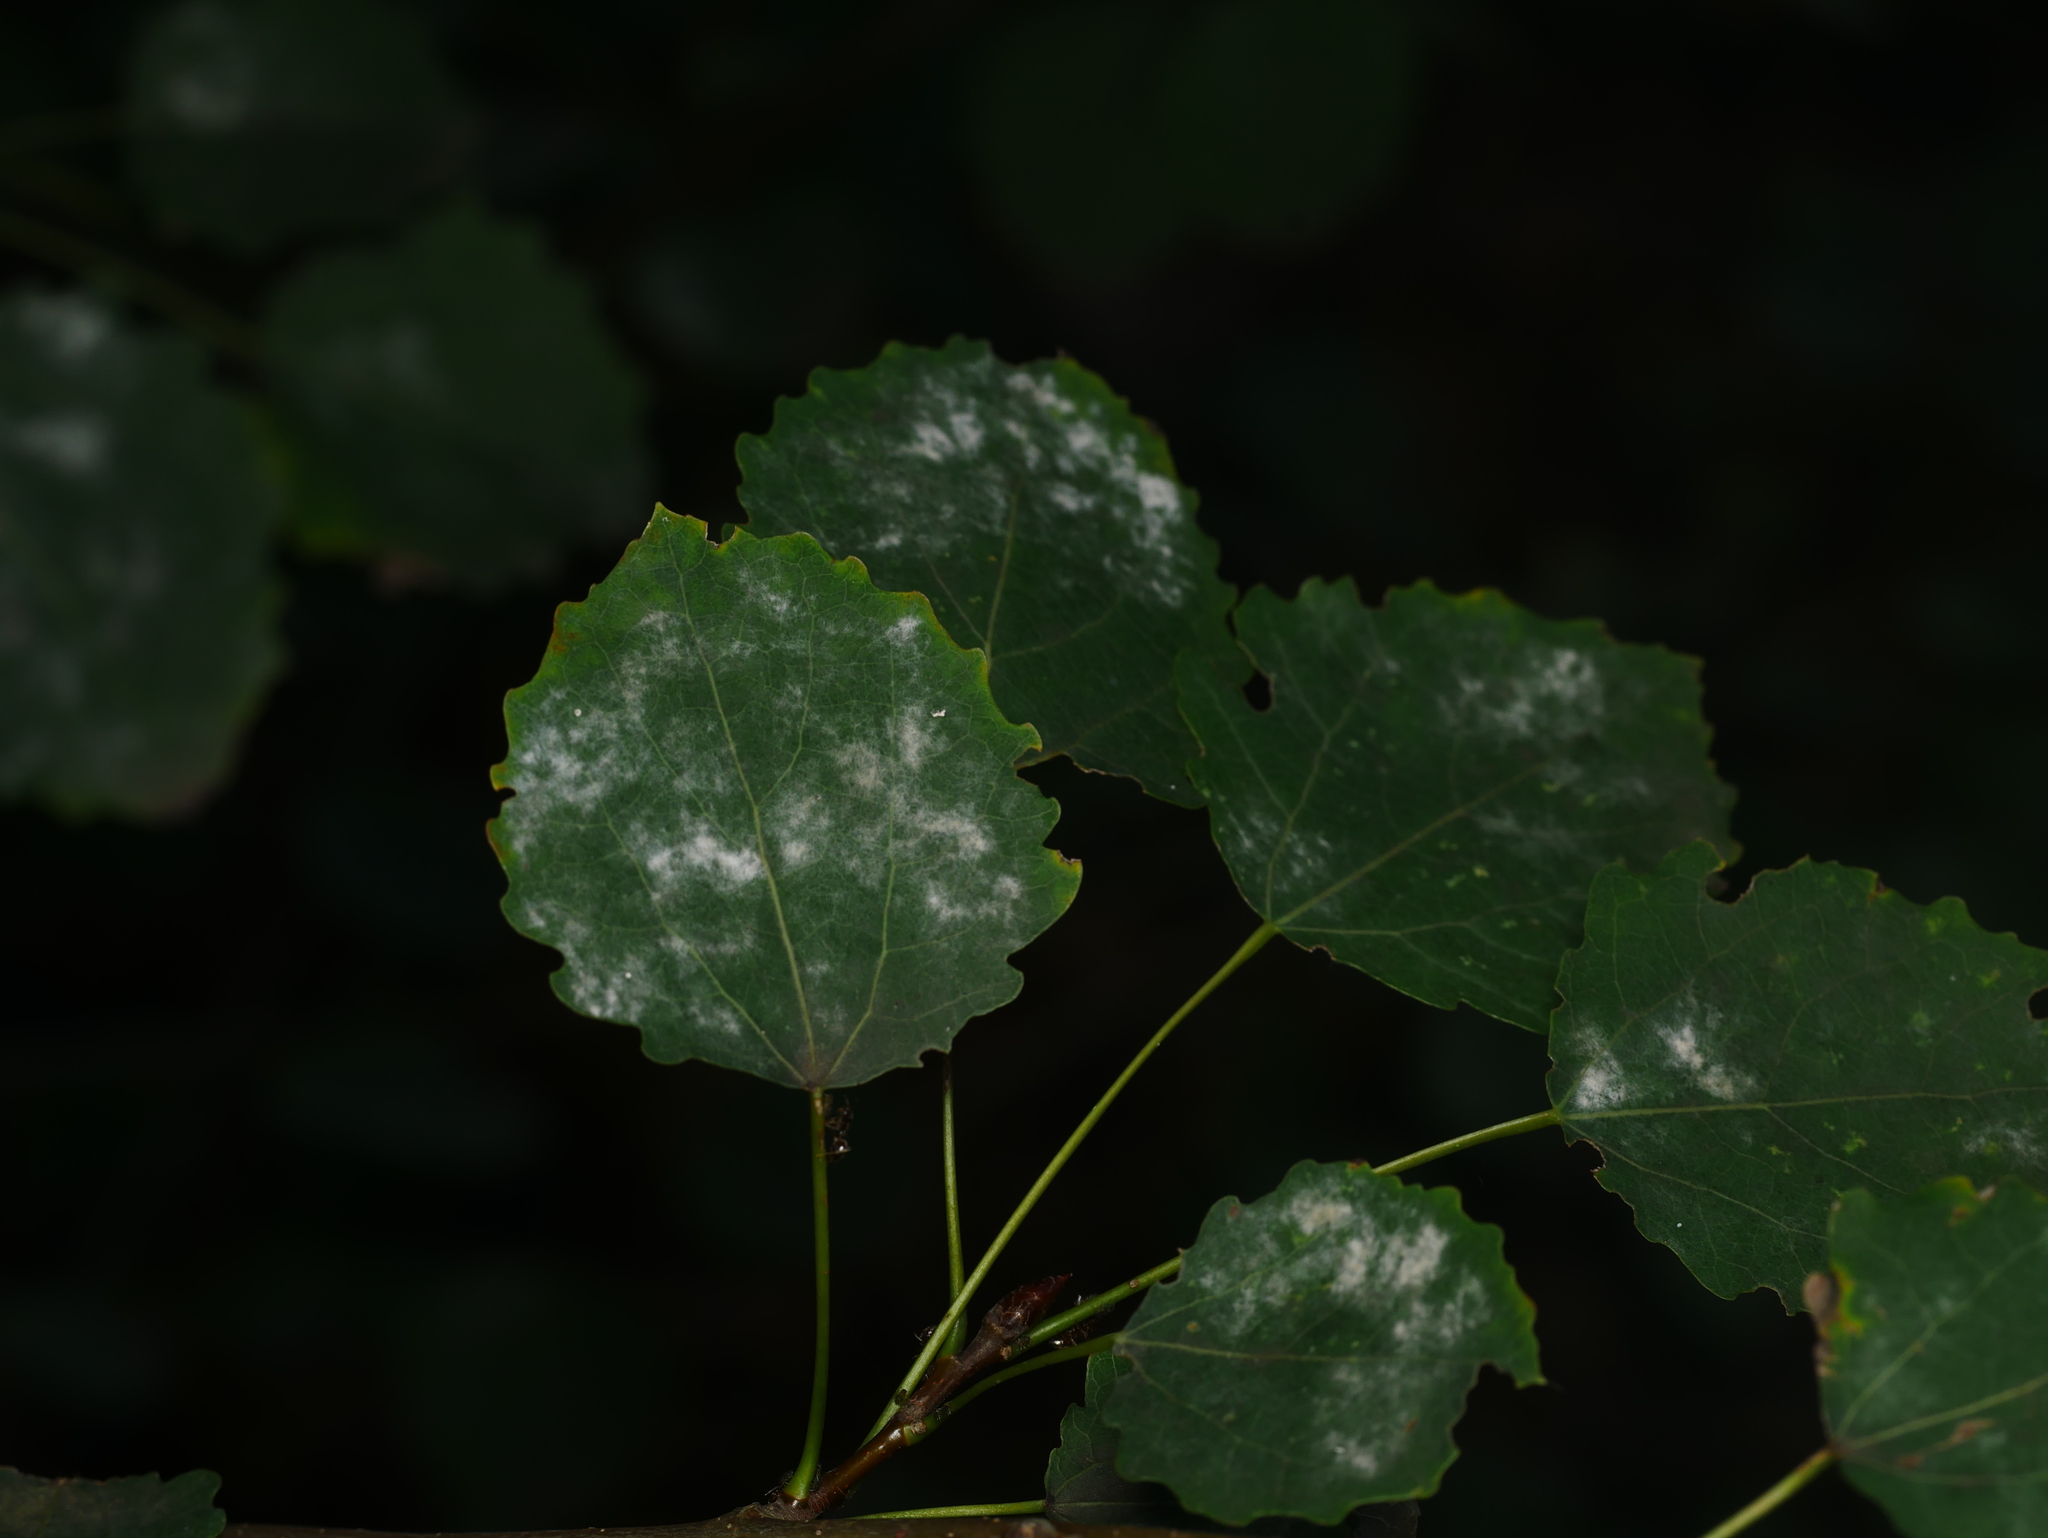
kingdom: Plantae
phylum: Tracheophyta
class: Magnoliopsida
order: Malpighiales
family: Salicaceae
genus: Populus
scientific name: Populus tremula
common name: European aspen
